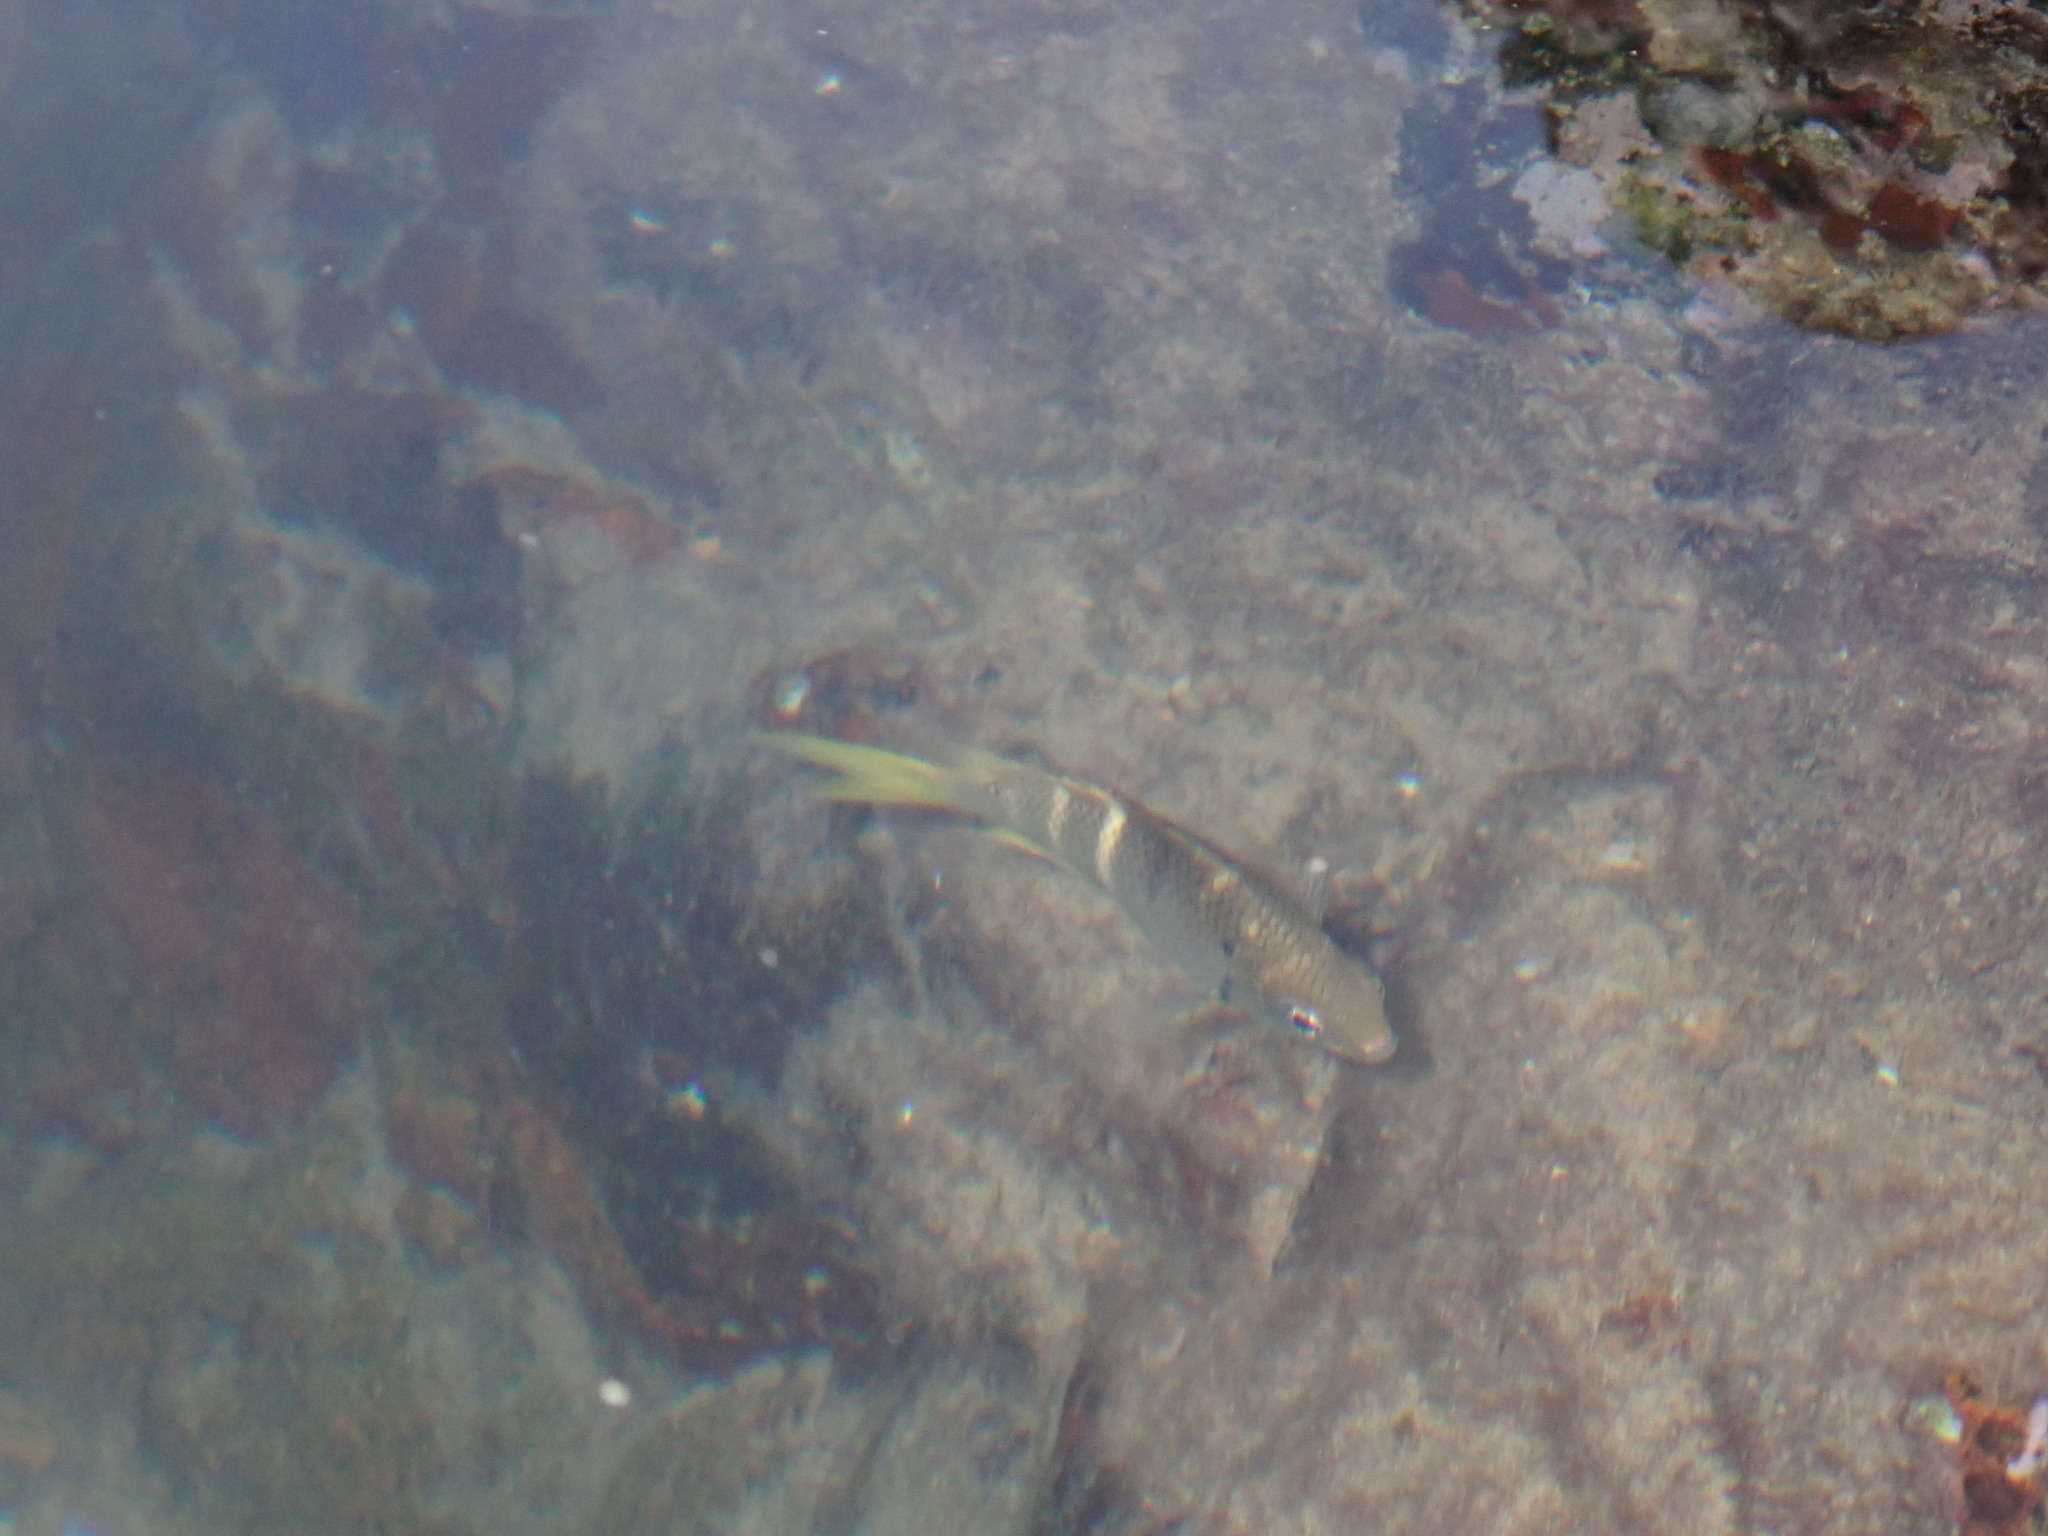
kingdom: Animalia
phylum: Chordata
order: Perciformes
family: Pomacentridae
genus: Abudefduf
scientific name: Abudefduf notatus
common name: Yellow-tail sergeant
